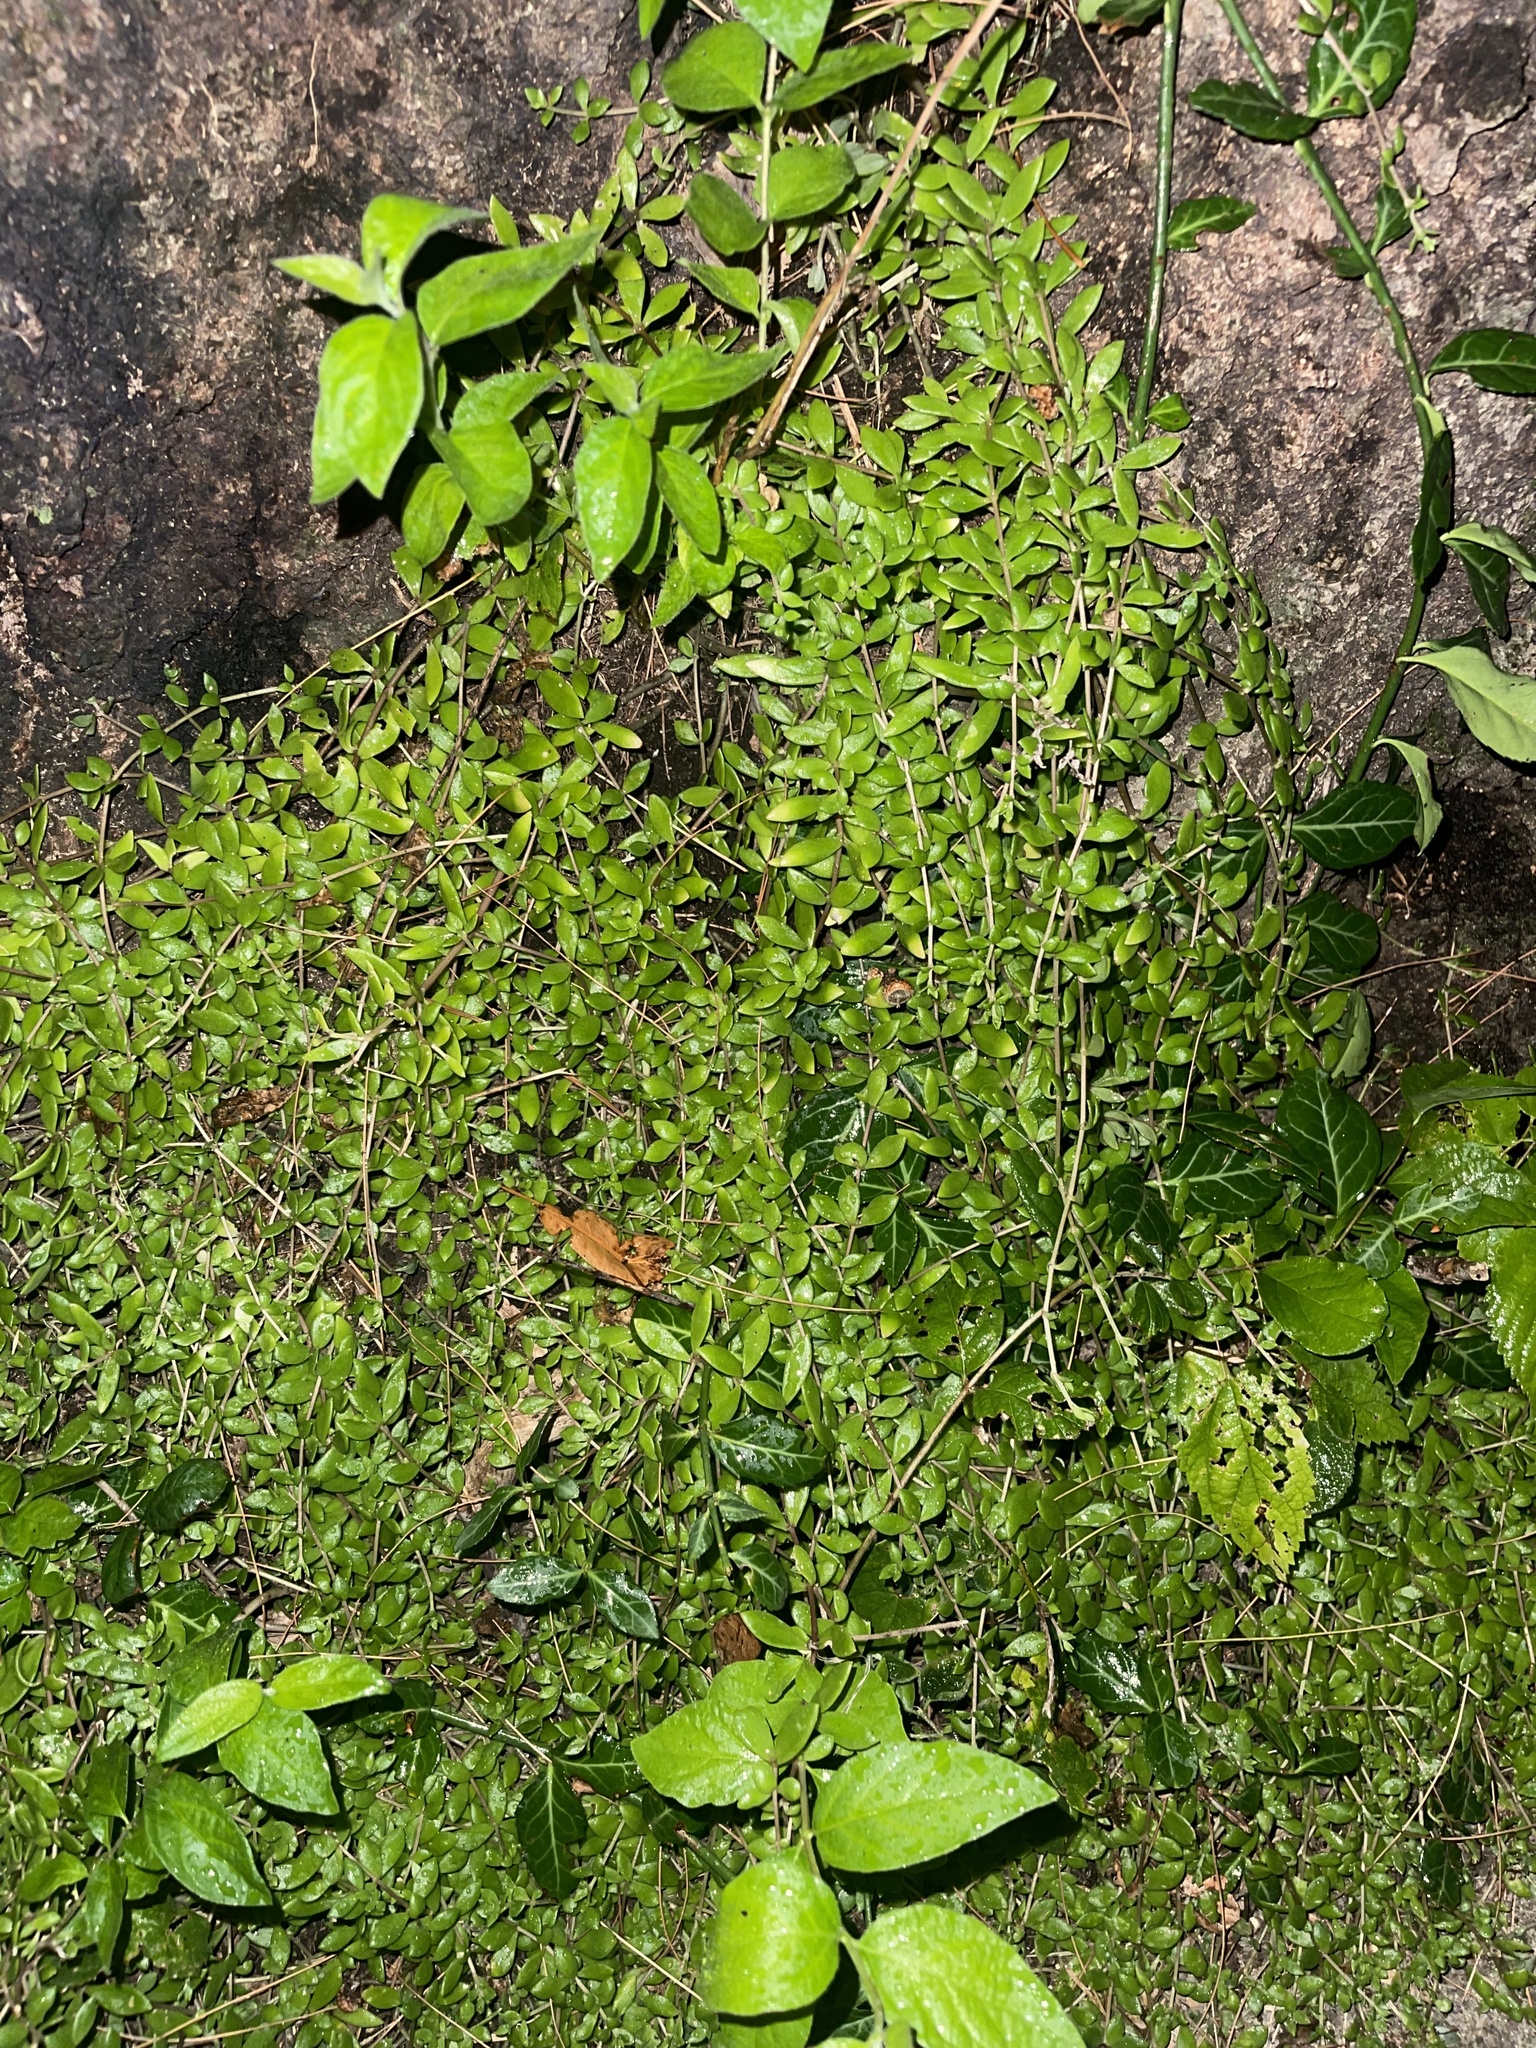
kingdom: Plantae
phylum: Tracheophyta
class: Magnoliopsida
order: Saxifragales
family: Crassulaceae
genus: Sedum
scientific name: Sedum sarmentosum
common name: Stringy stonecrop
